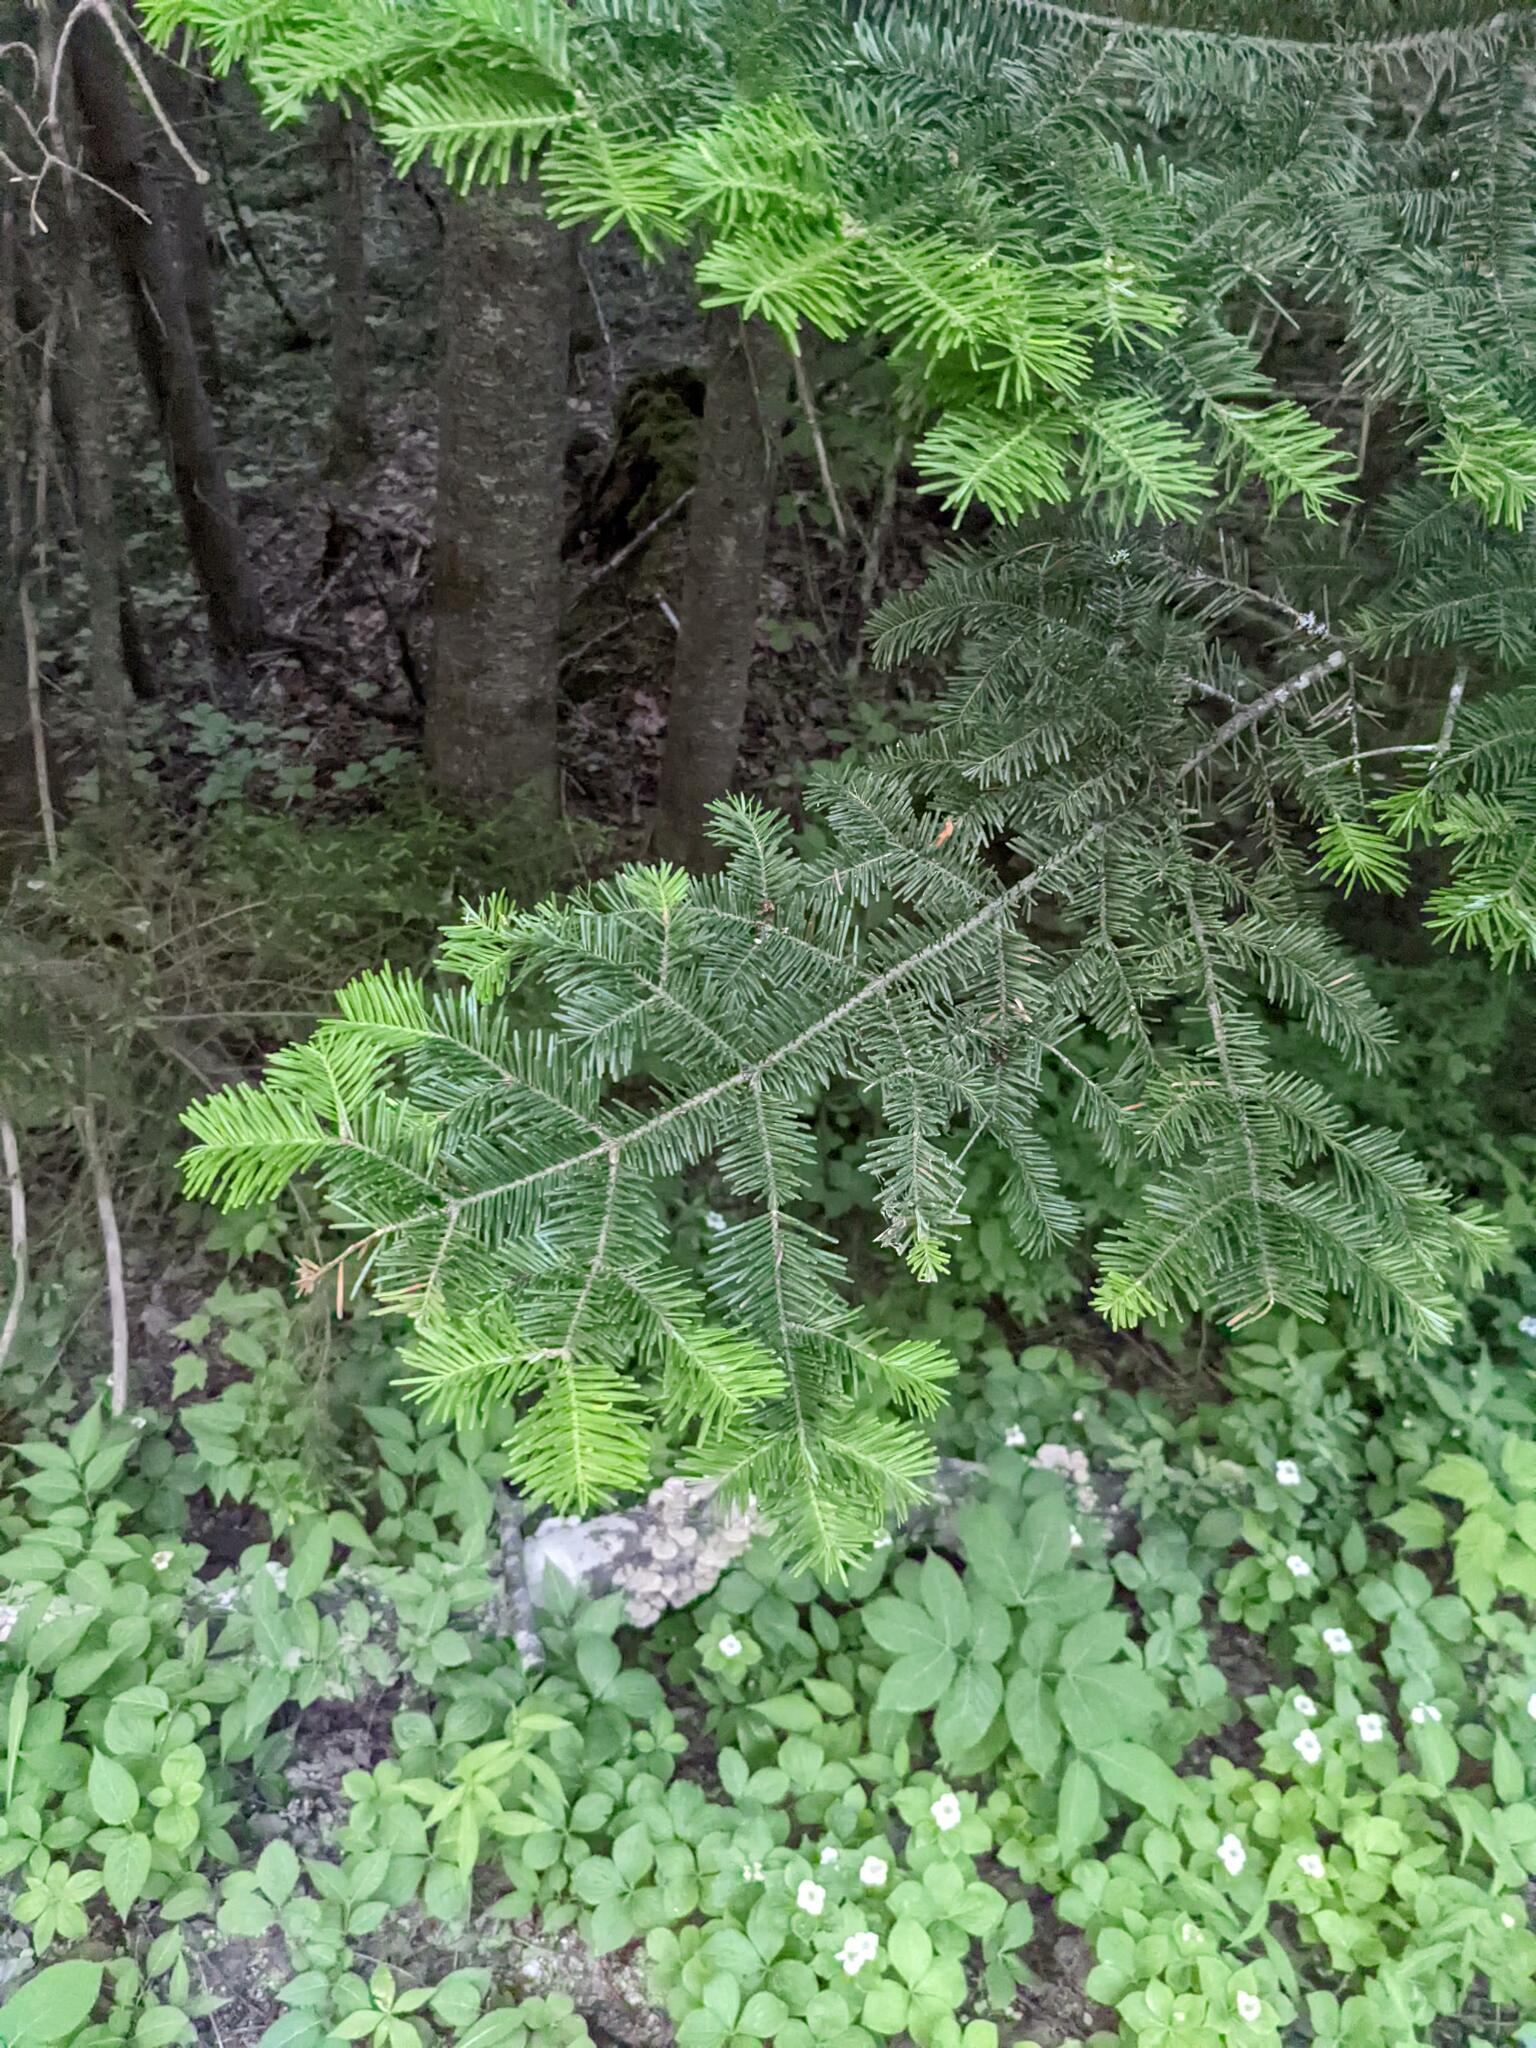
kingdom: Plantae
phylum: Tracheophyta
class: Pinopsida
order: Pinales
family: Pinaceae
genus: Abies
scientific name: Abies balsamea
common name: Balsam fir
